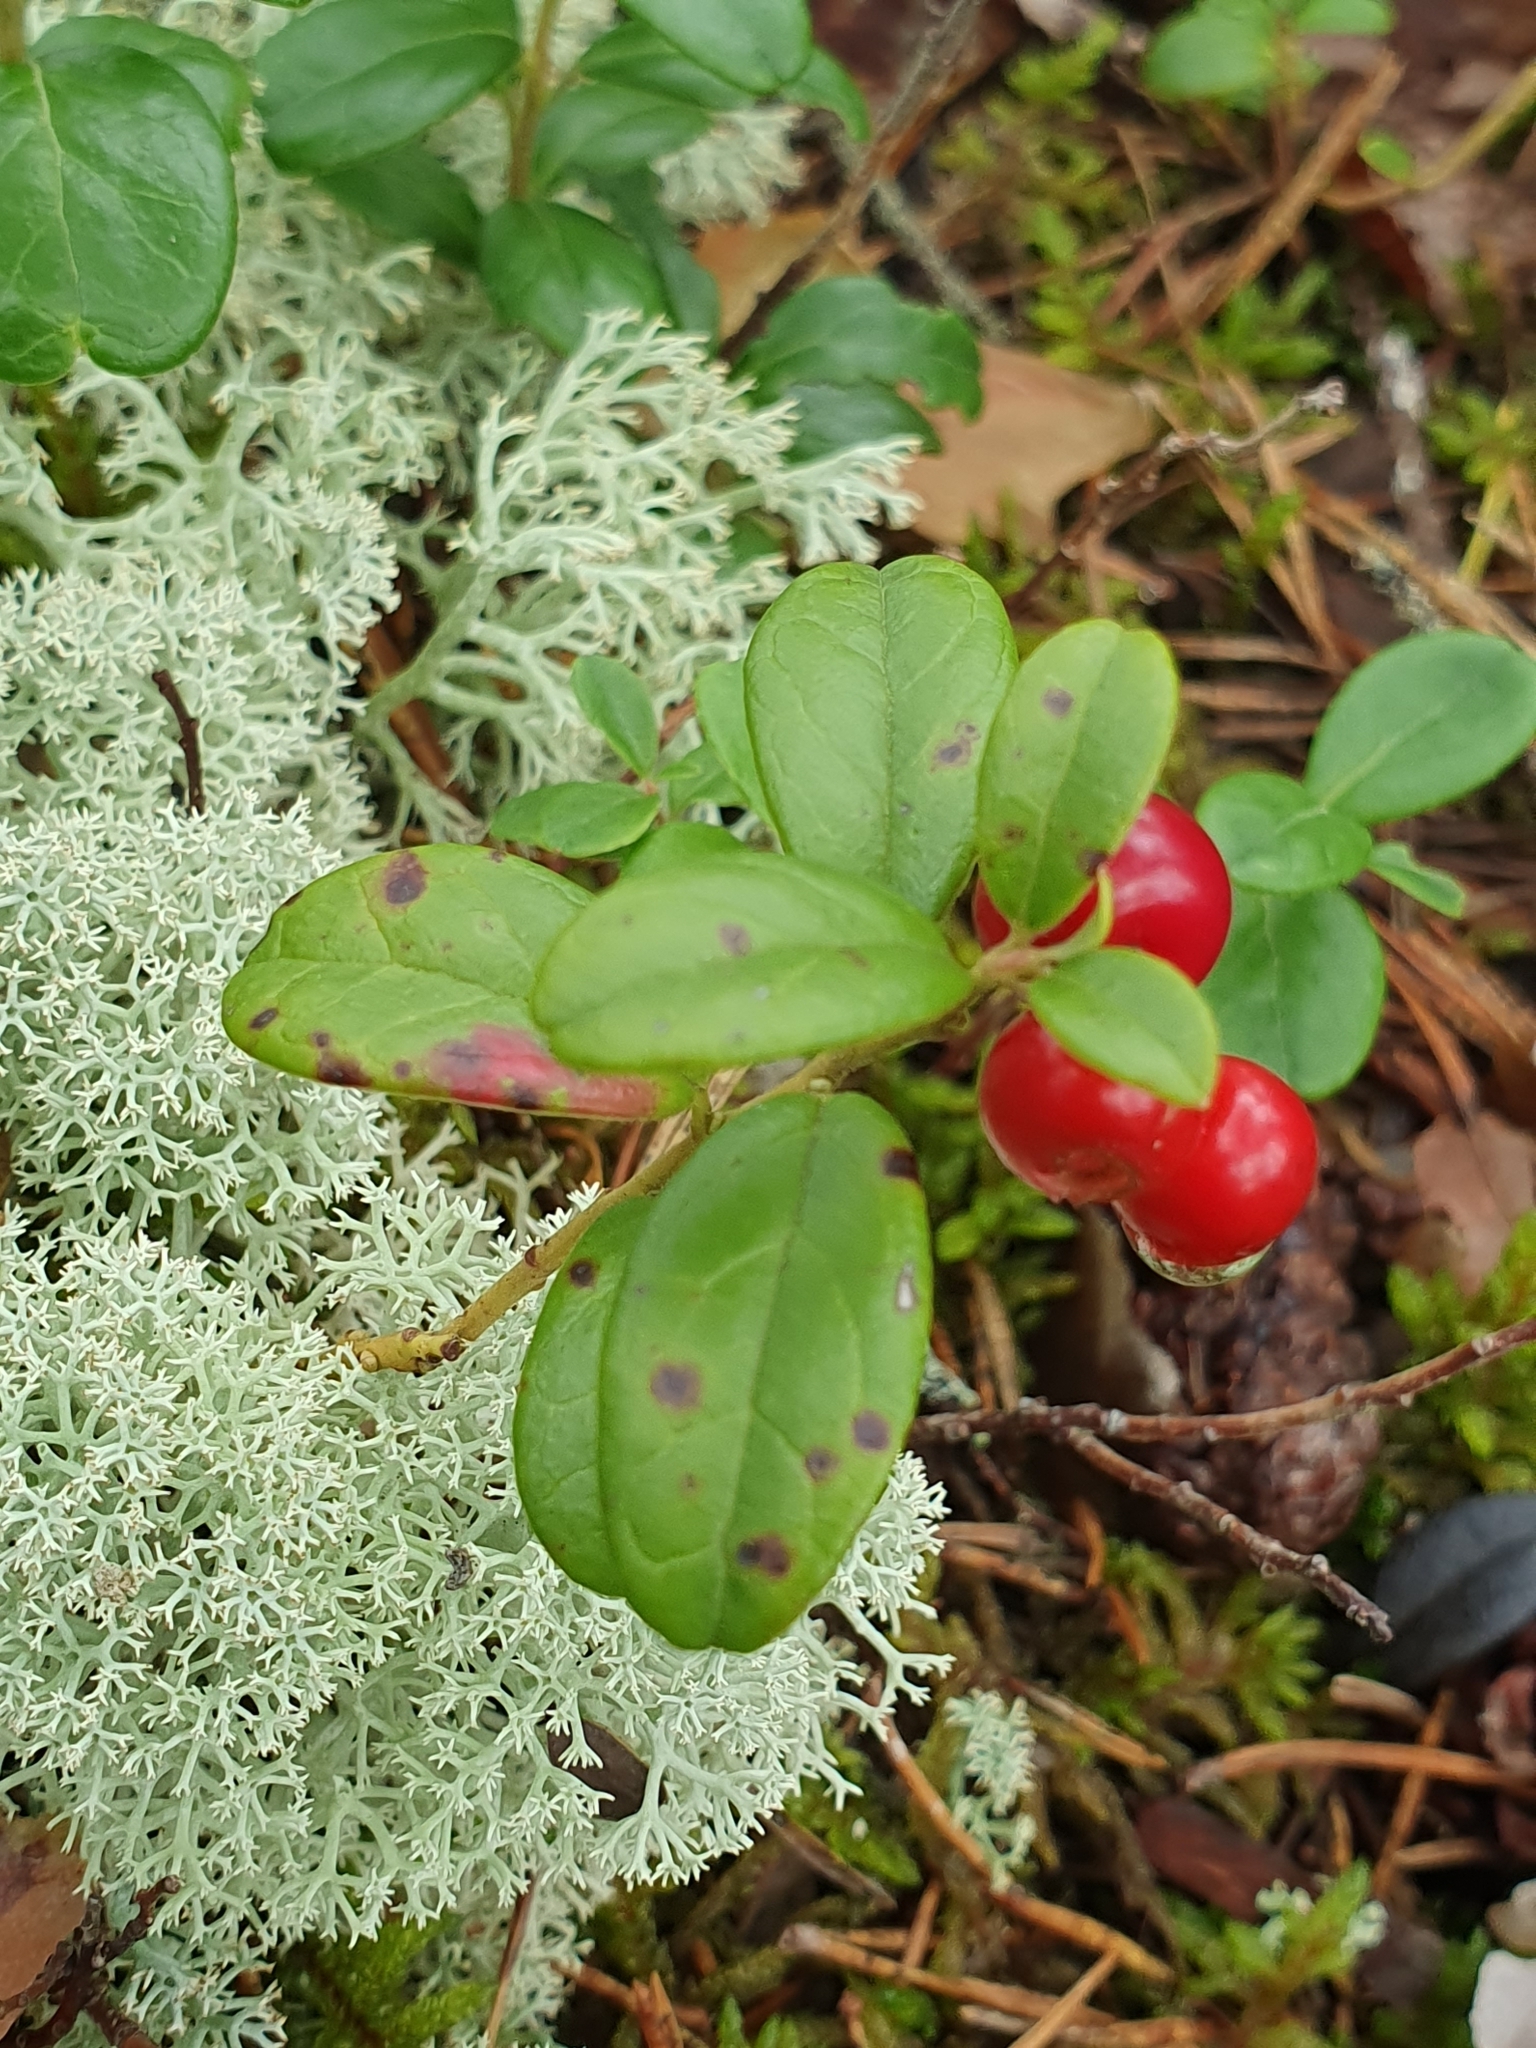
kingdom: Plantae
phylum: Tracheophyta
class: Magnoliopsida
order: Ericales
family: Ericaceae
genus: Vaccinium
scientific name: Vaccinium vitis-idaea
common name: Cowberry
